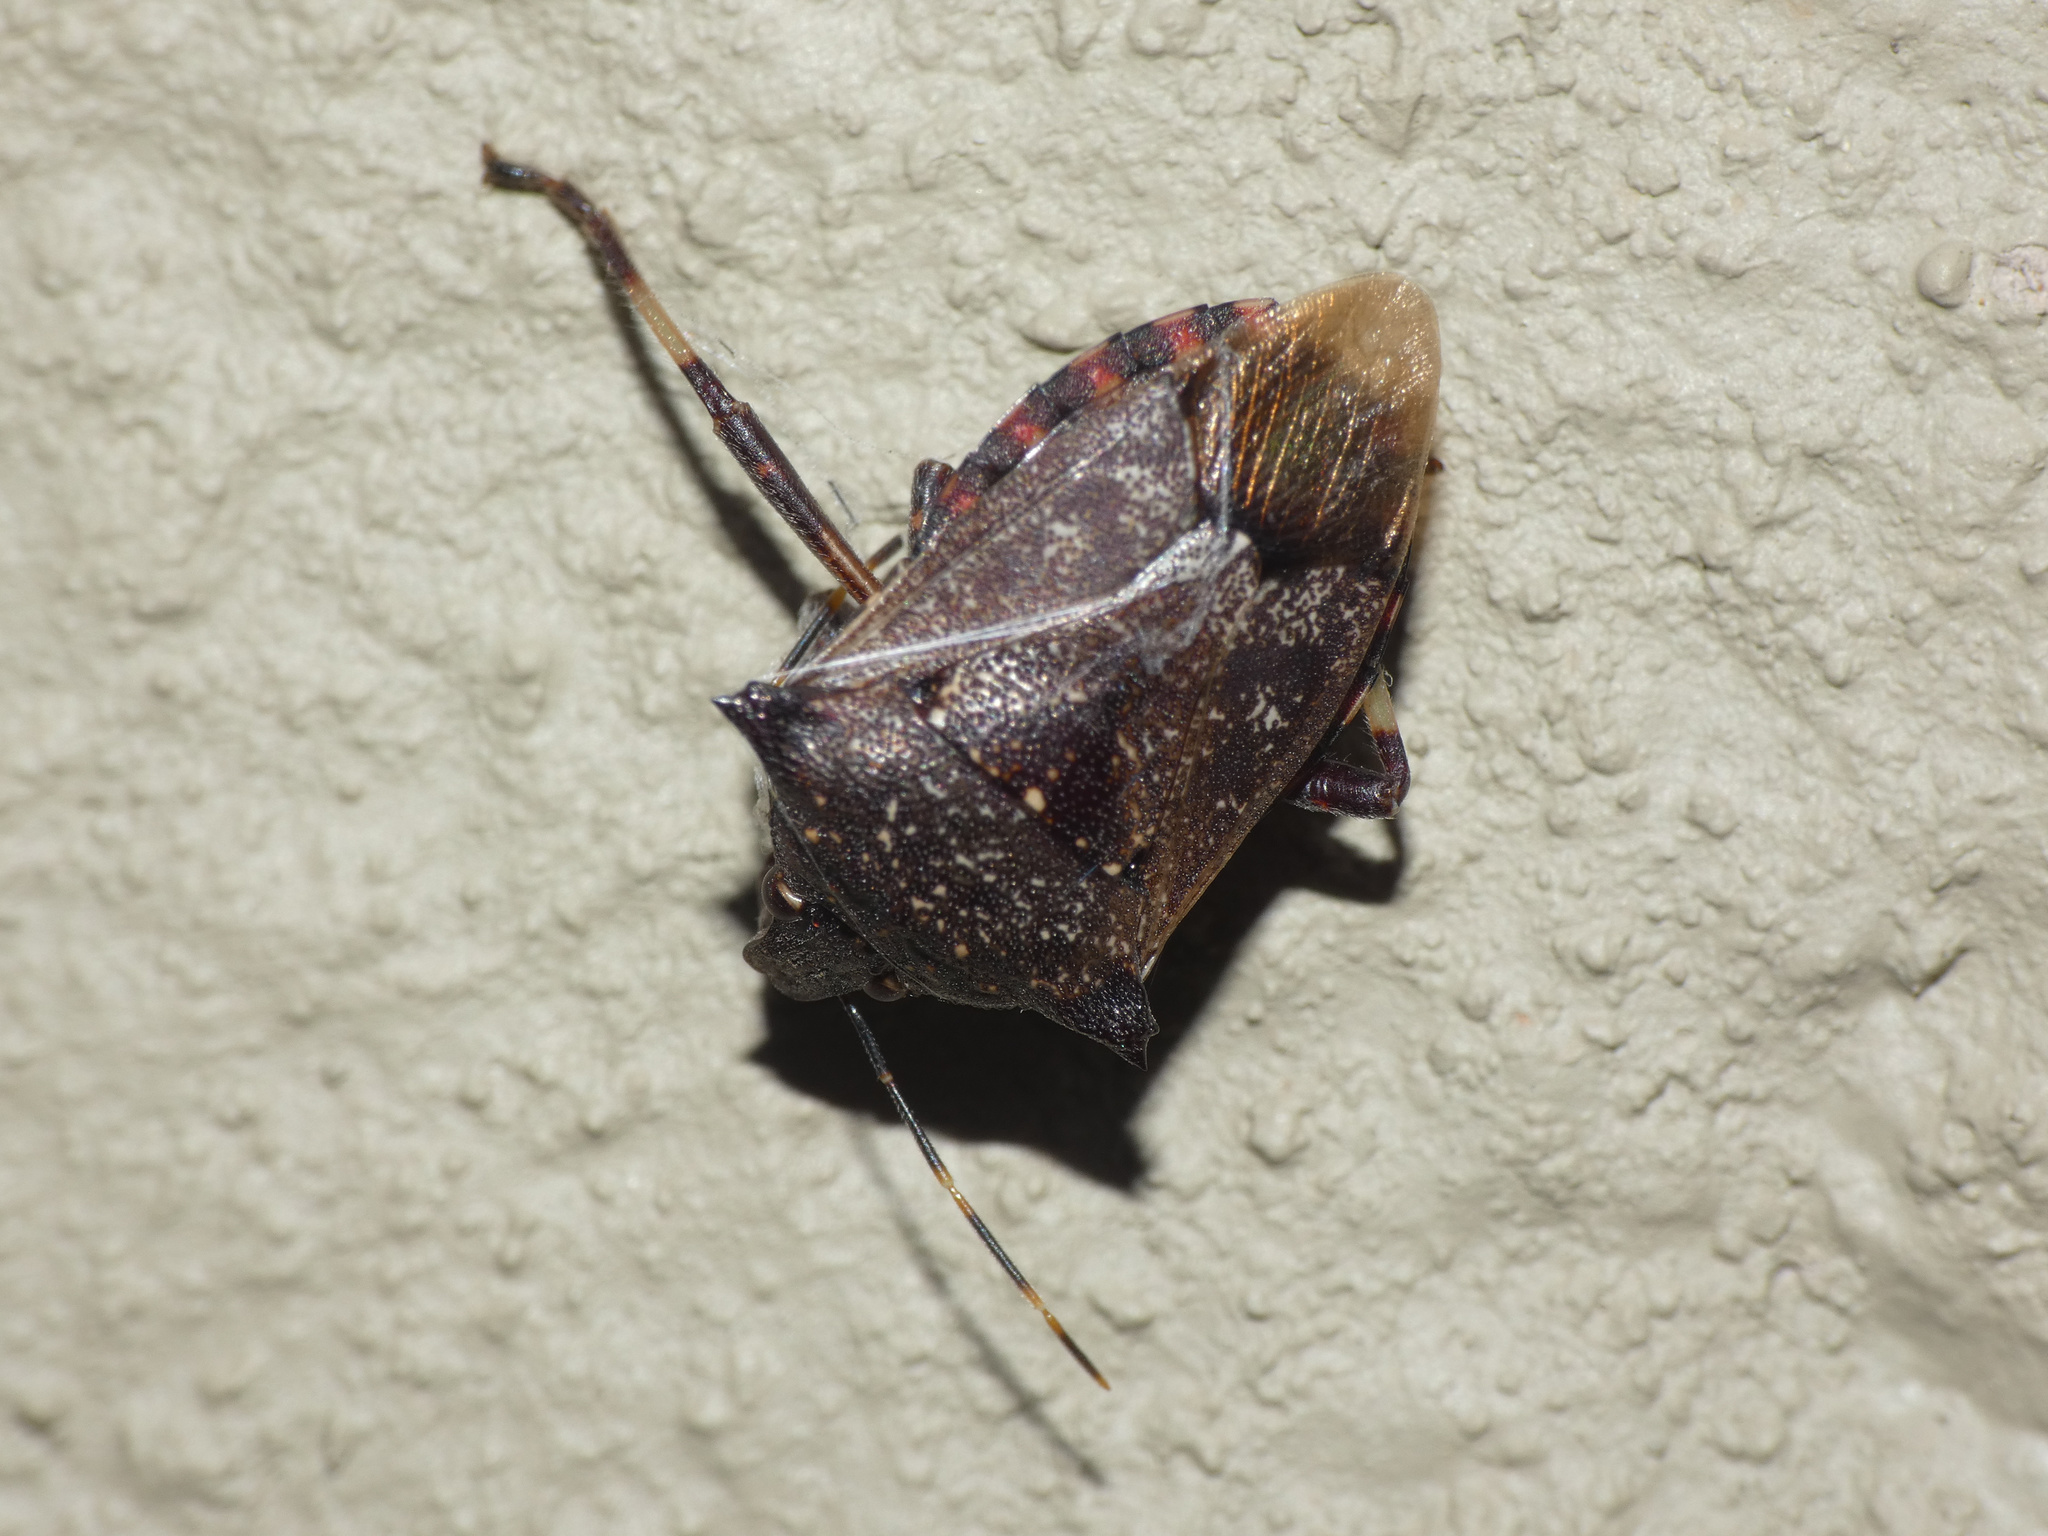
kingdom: Animalia
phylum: Arthropoda
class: Insecta
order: Hemiptera
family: Pentatomidae
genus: Glypsus
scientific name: Glypsus conspicuus
